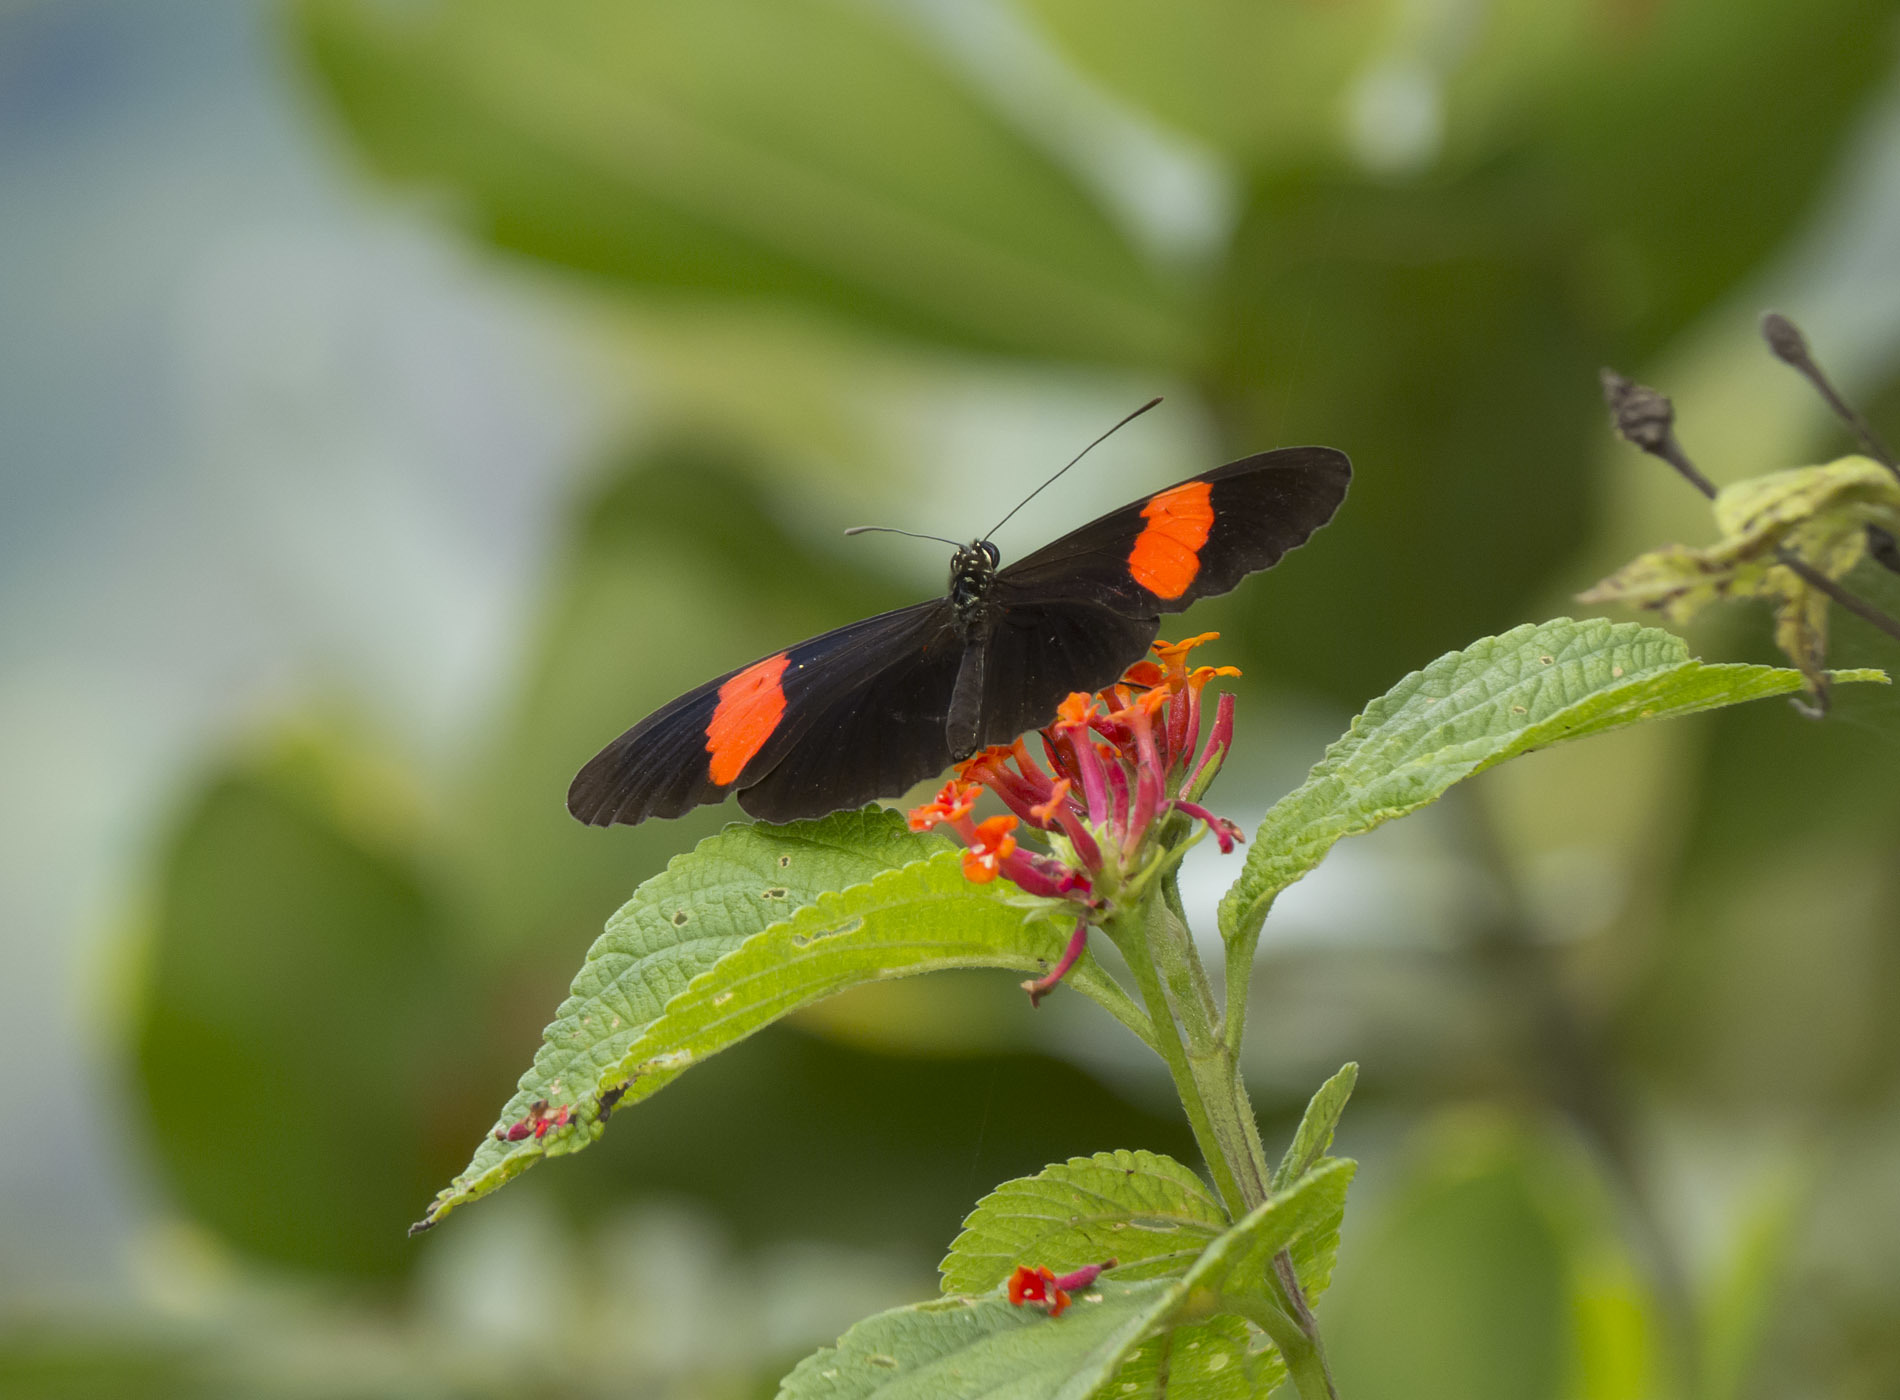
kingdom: Animalia
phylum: Arthropoda
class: Insecta
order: Lepidoptera
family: Nymphalidae
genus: Heliconius
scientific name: Heliconius erato
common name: Common patch longwing
